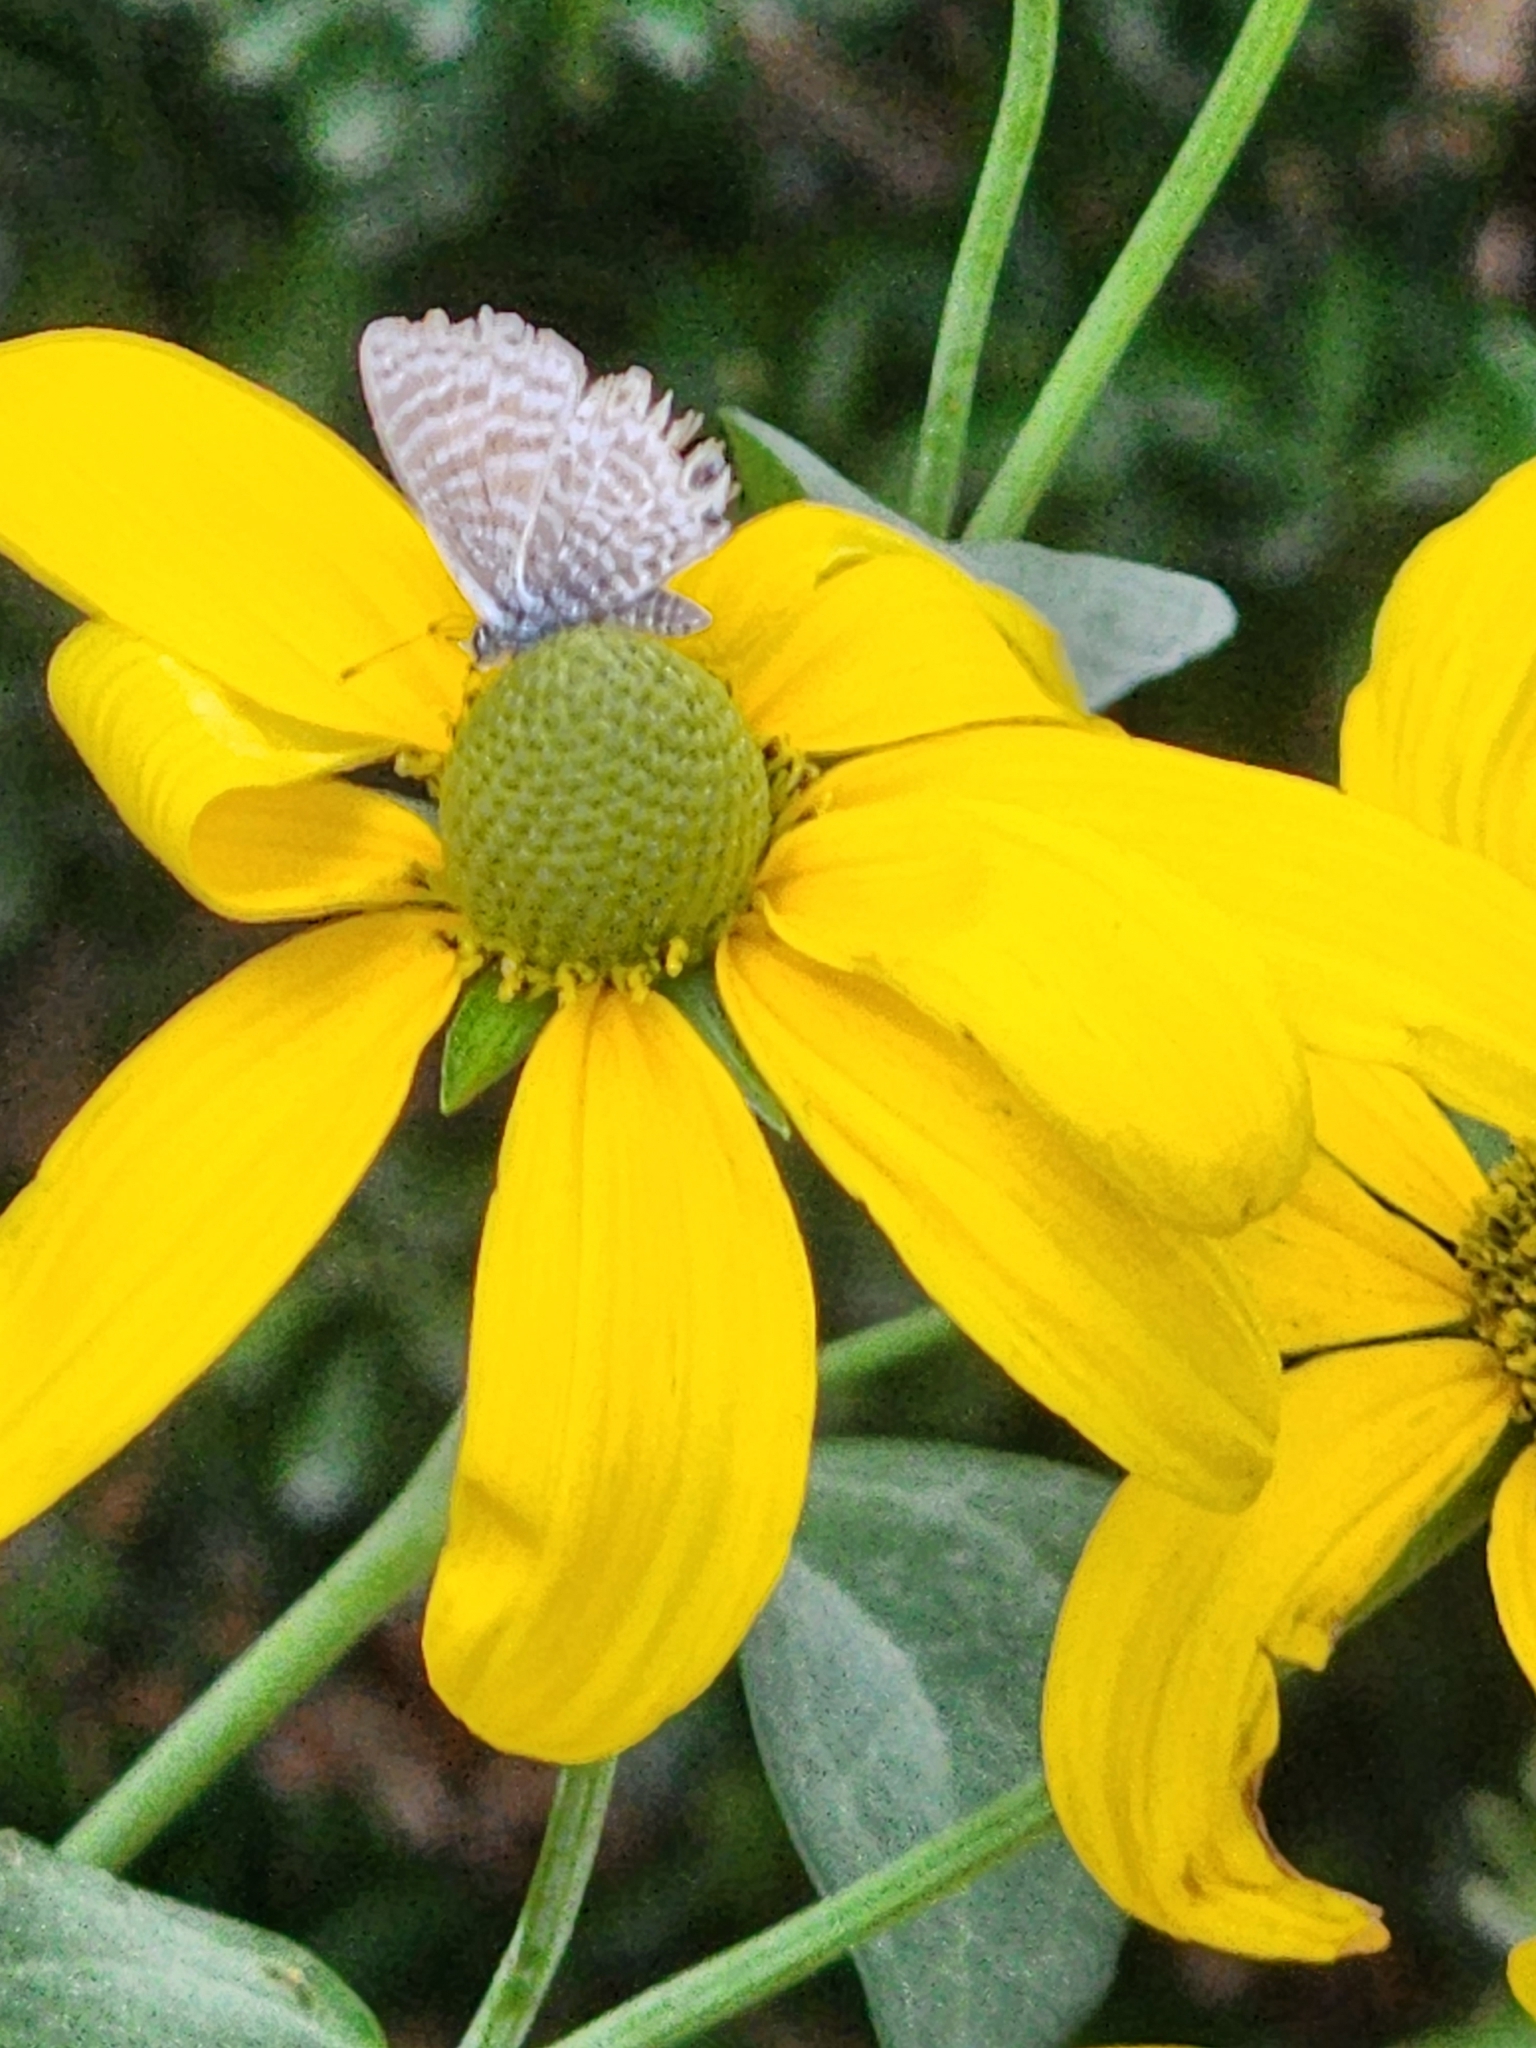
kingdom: Animalia
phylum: Arthropoda
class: Insecta
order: Lepidoptera
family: Lycaenidae
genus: Leptotes
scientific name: Leptotes marina
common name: Marine blue
